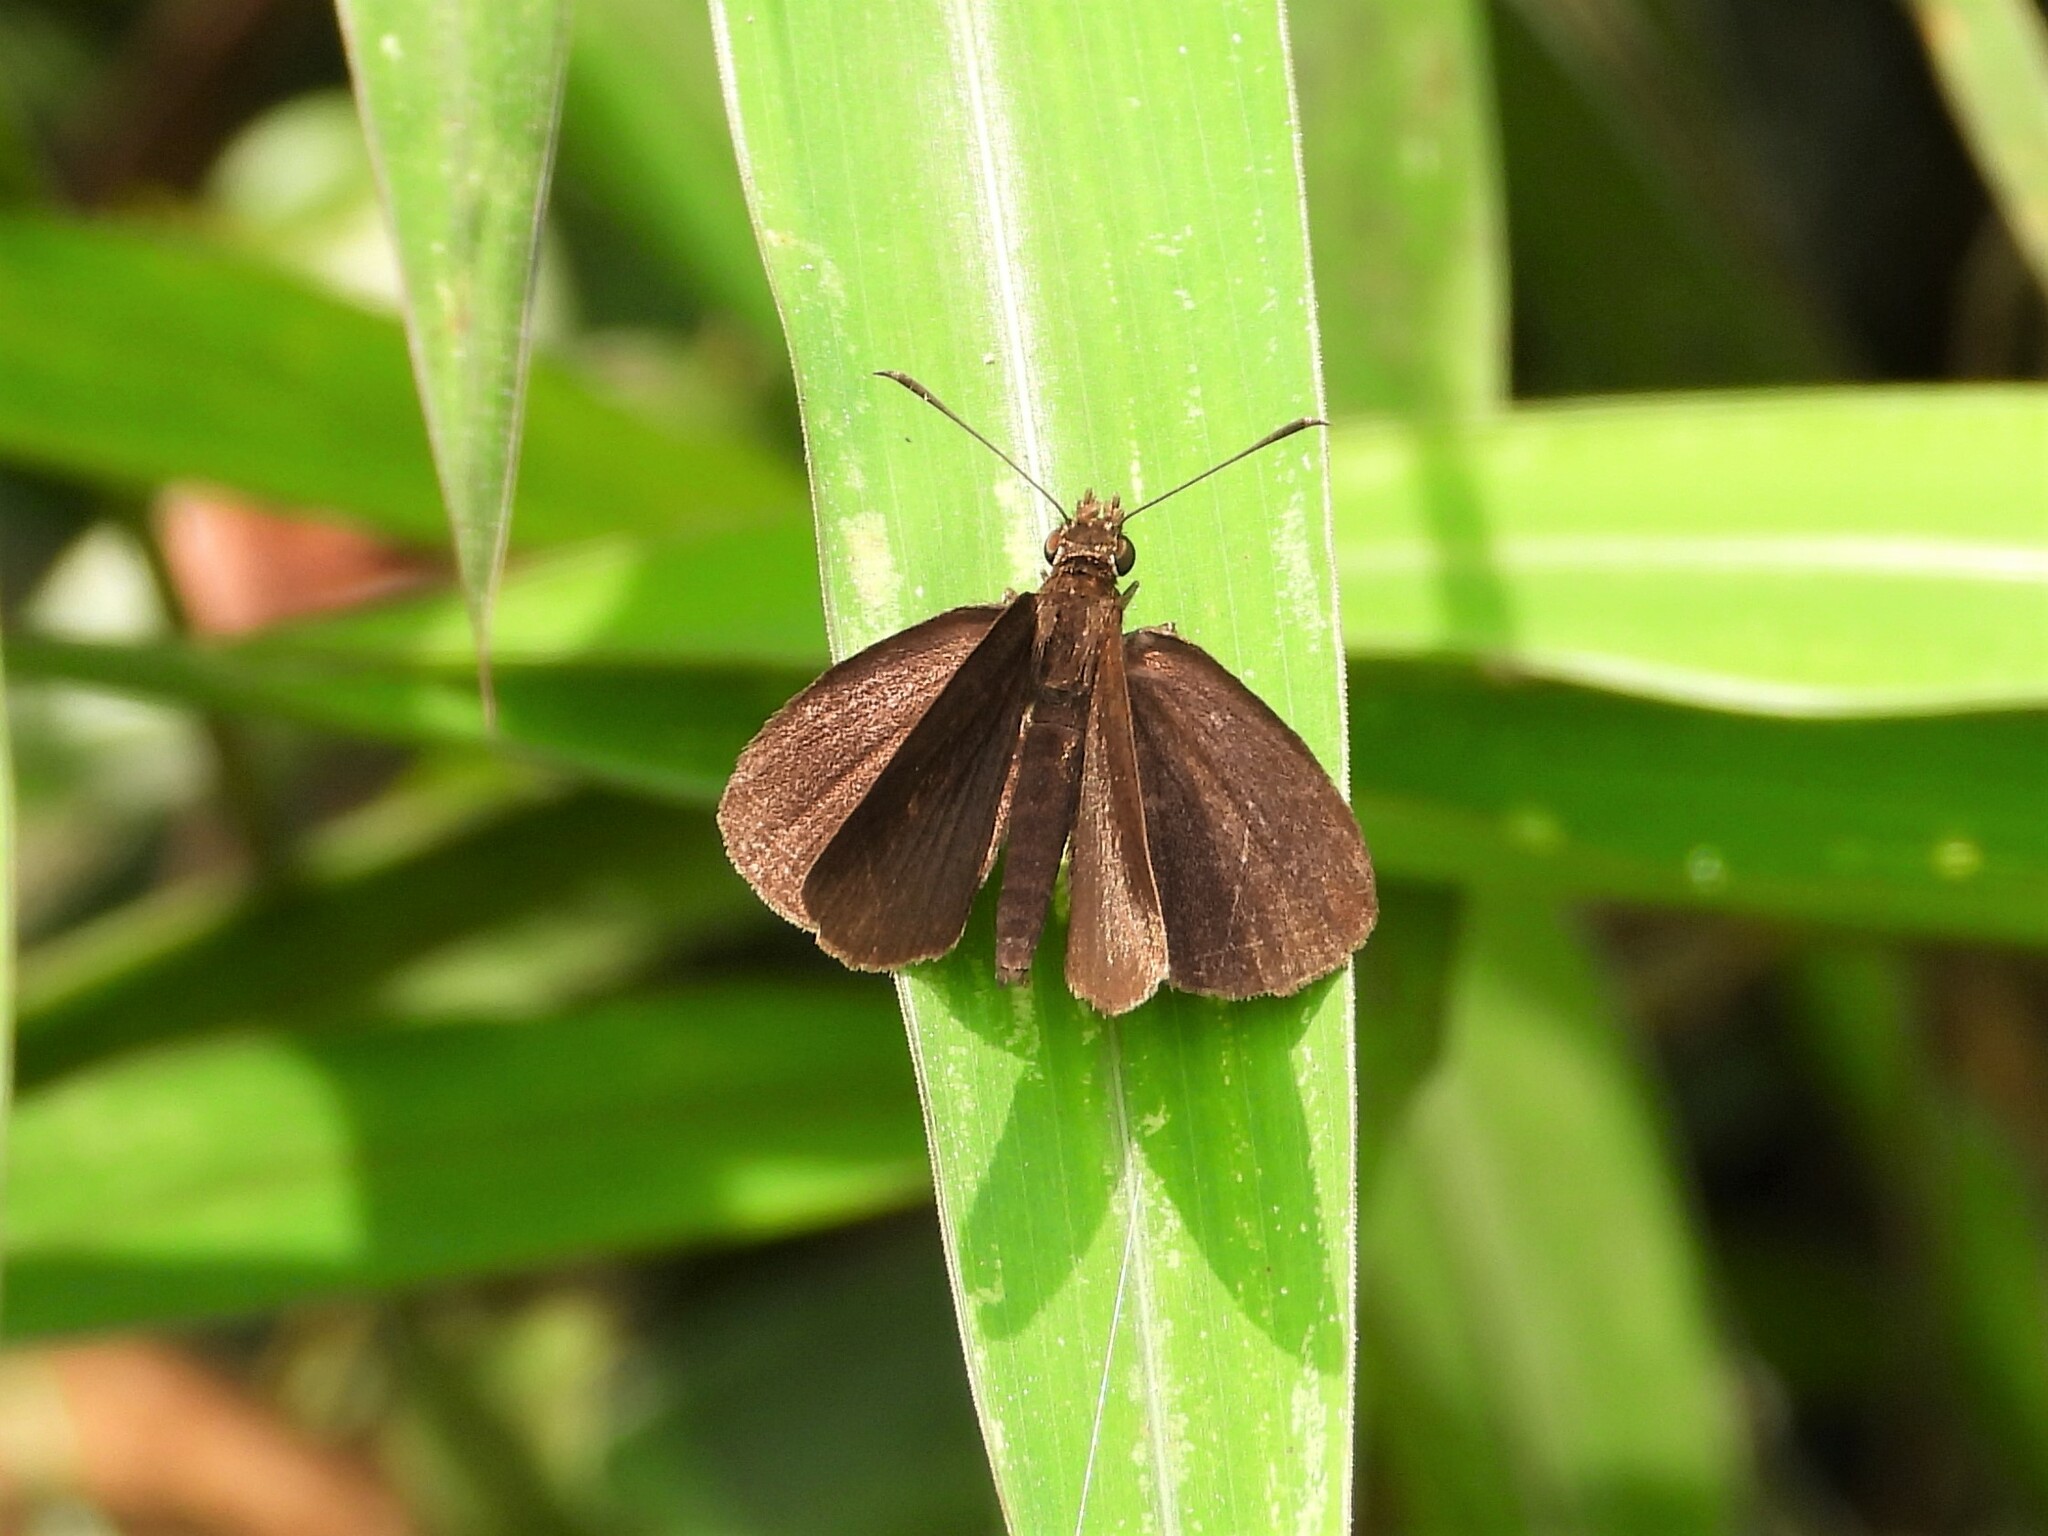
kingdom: Animalia
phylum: Arthropoda
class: Insecta
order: Lepidoptera
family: Hesperiidae
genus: Astictopterus
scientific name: Astictopterus jama
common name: Forest hopper
